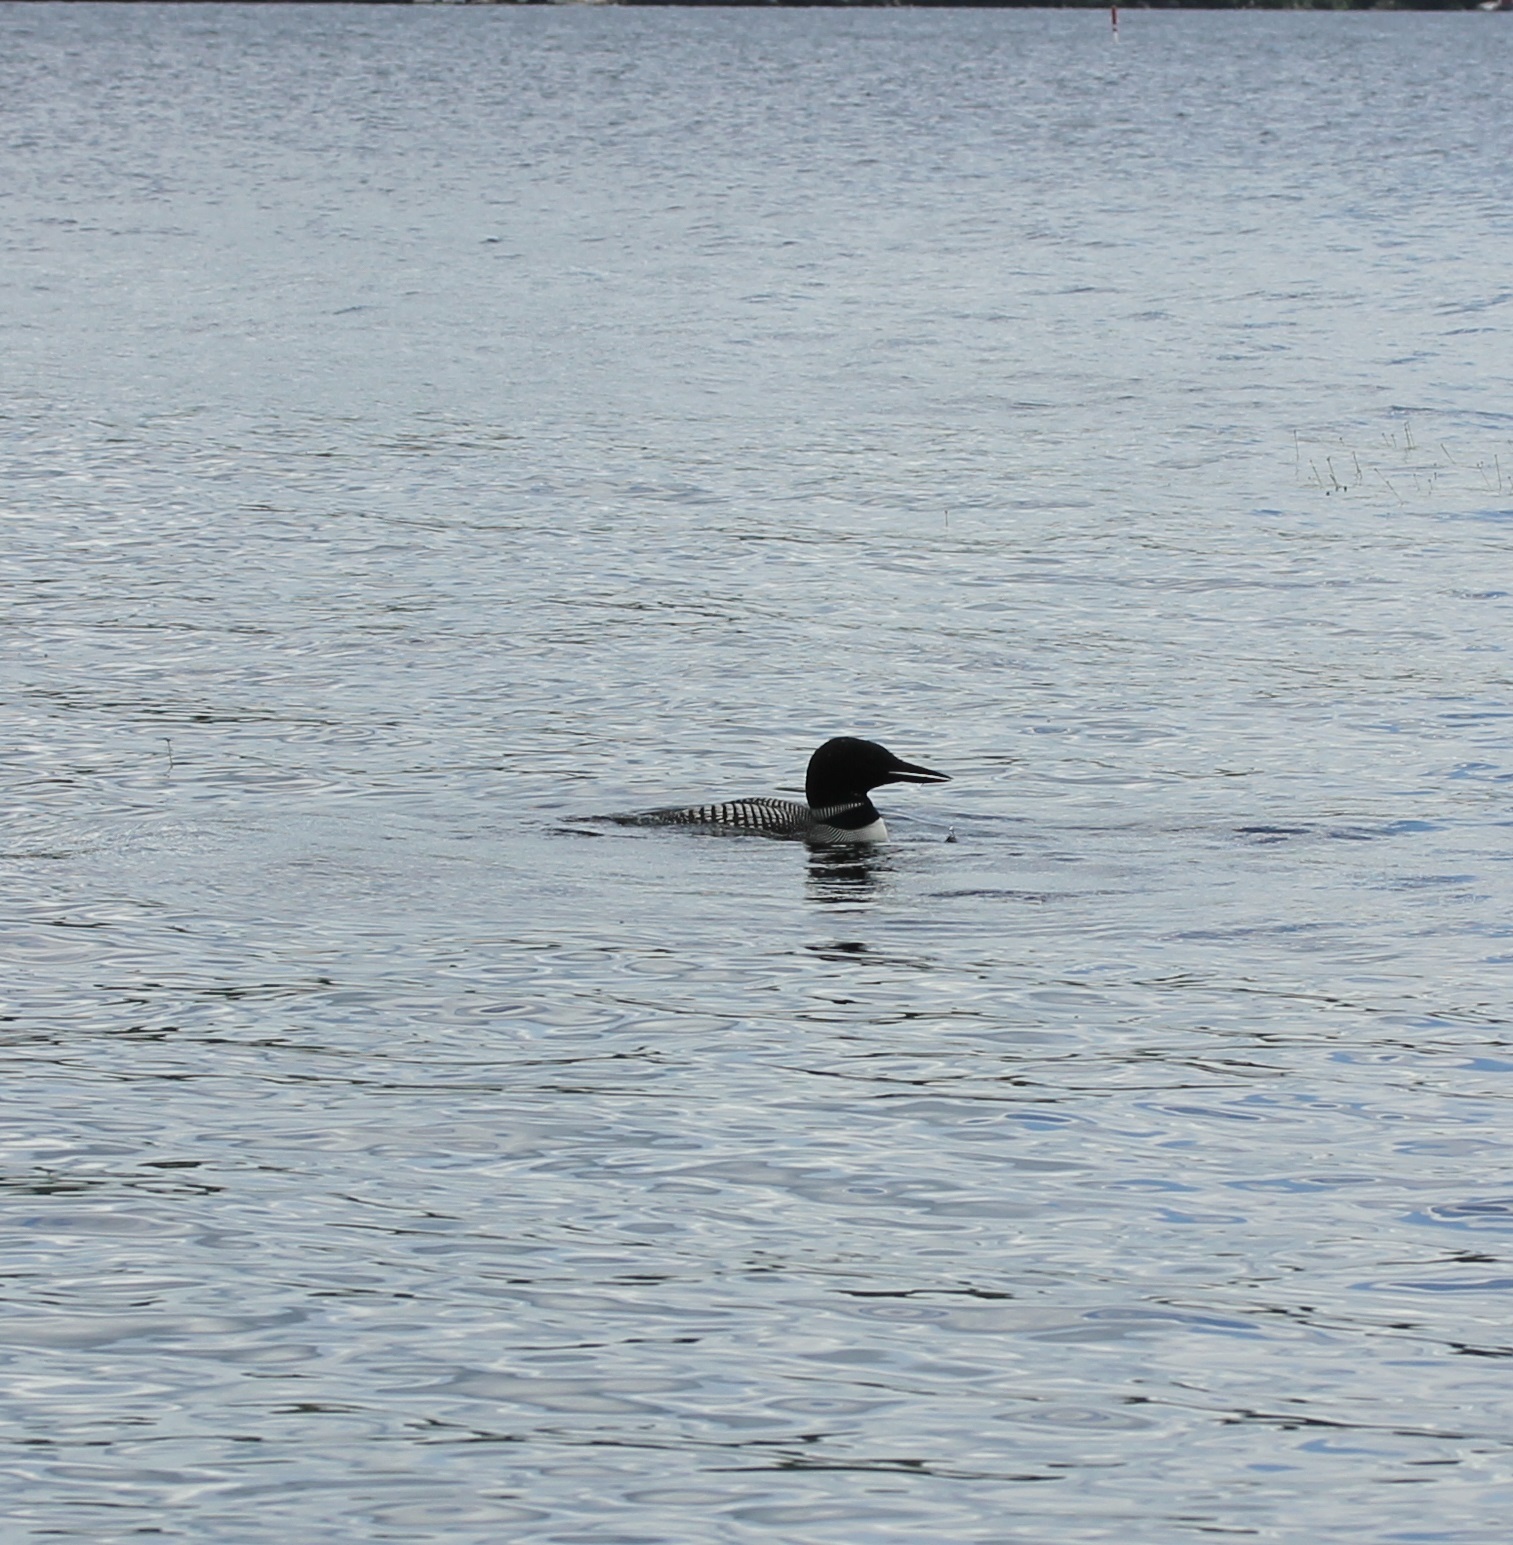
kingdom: Animalia
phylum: Chordata
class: Aves
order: Gaviiformes
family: Gaviidae
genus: Gavia
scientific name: Gavia immer
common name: Common loon
